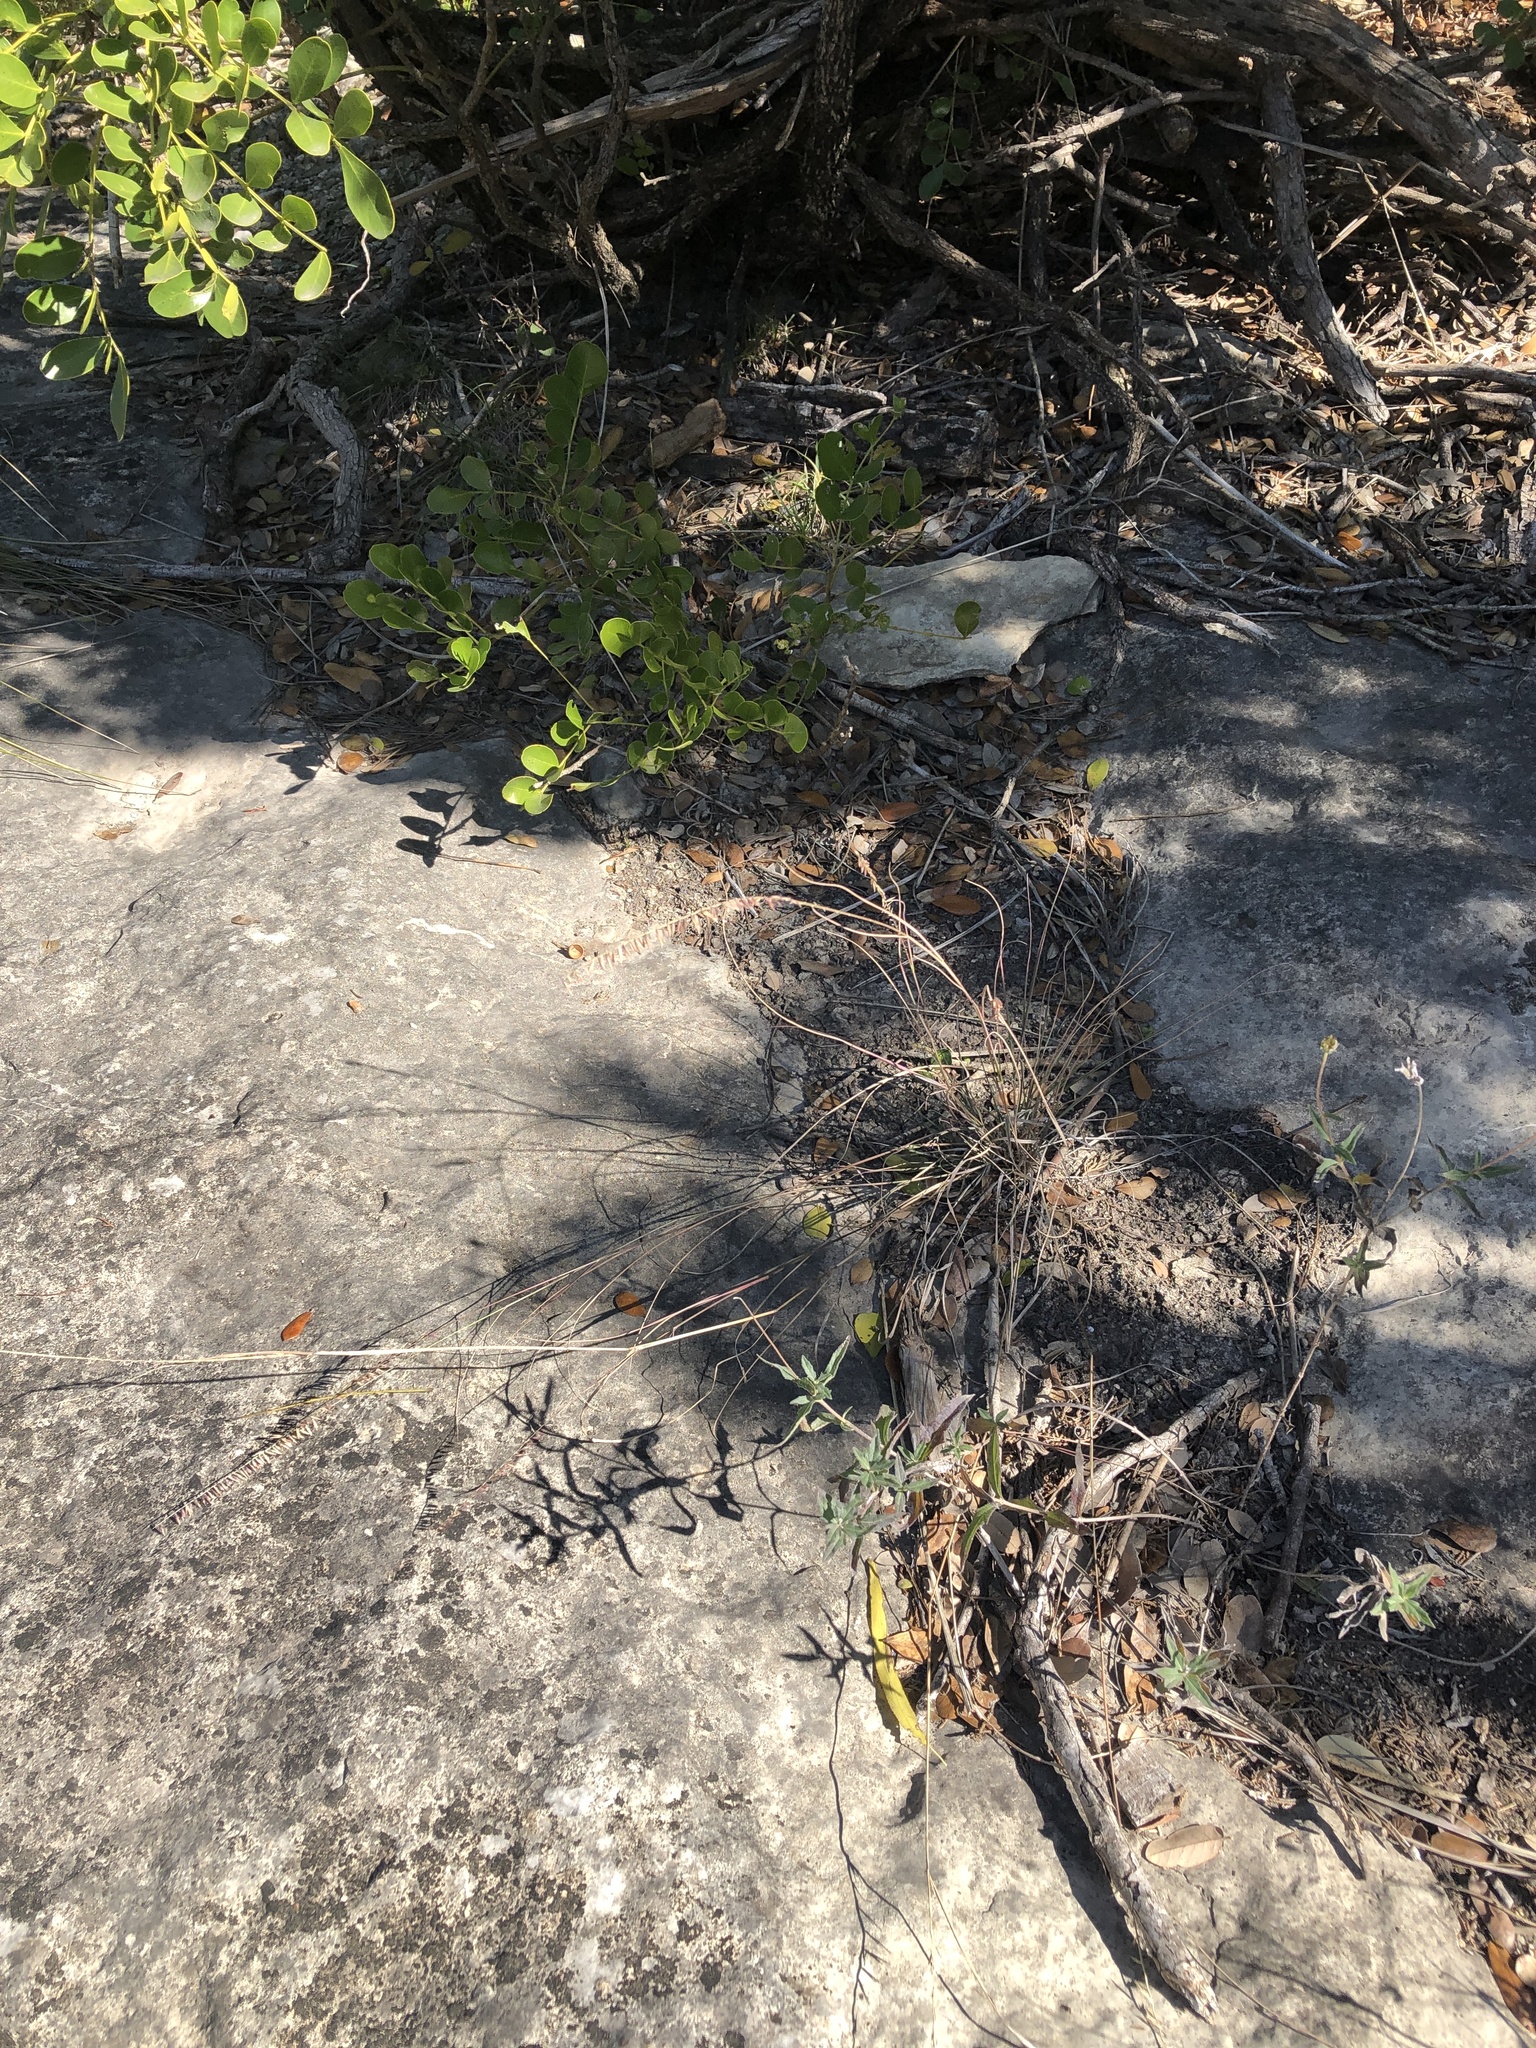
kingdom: Plantae
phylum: Tracheophyta
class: Liliopsida
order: Poales
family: Poaceae
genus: Bouteloua
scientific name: Bouteloua curtipendula
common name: Side-oats grama
